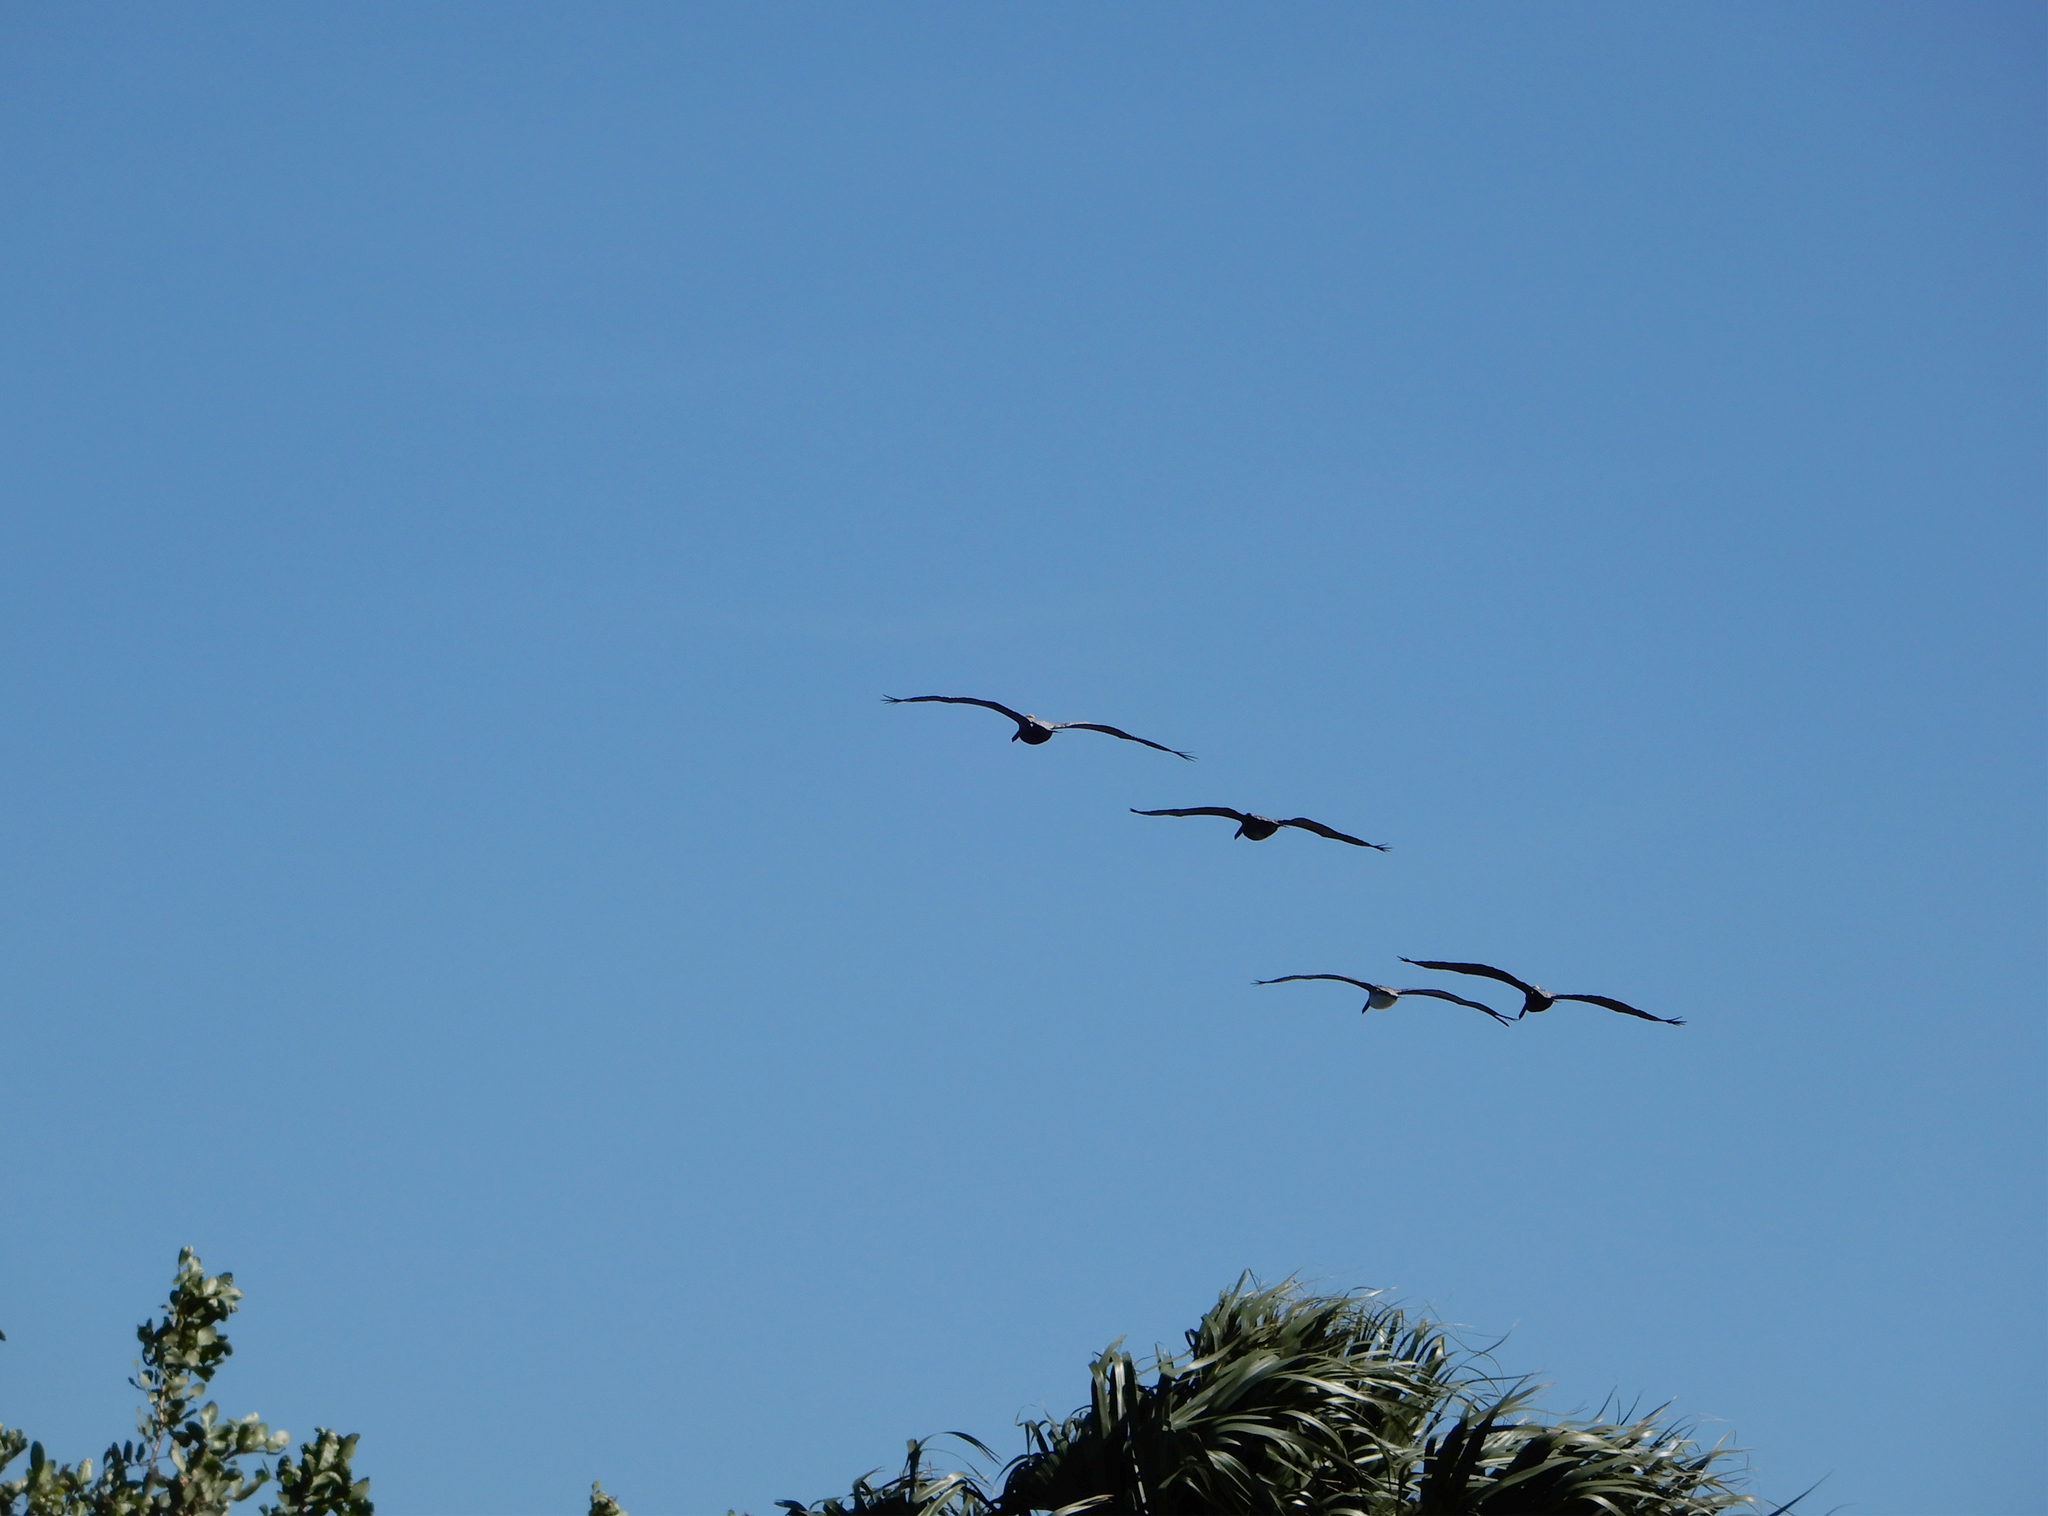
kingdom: Animalia
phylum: Chordata
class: Aves
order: Pelecaniformes
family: Pelecanidae
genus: Pelecanus
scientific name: Pelecanus occidentalis
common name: Brown pelican
